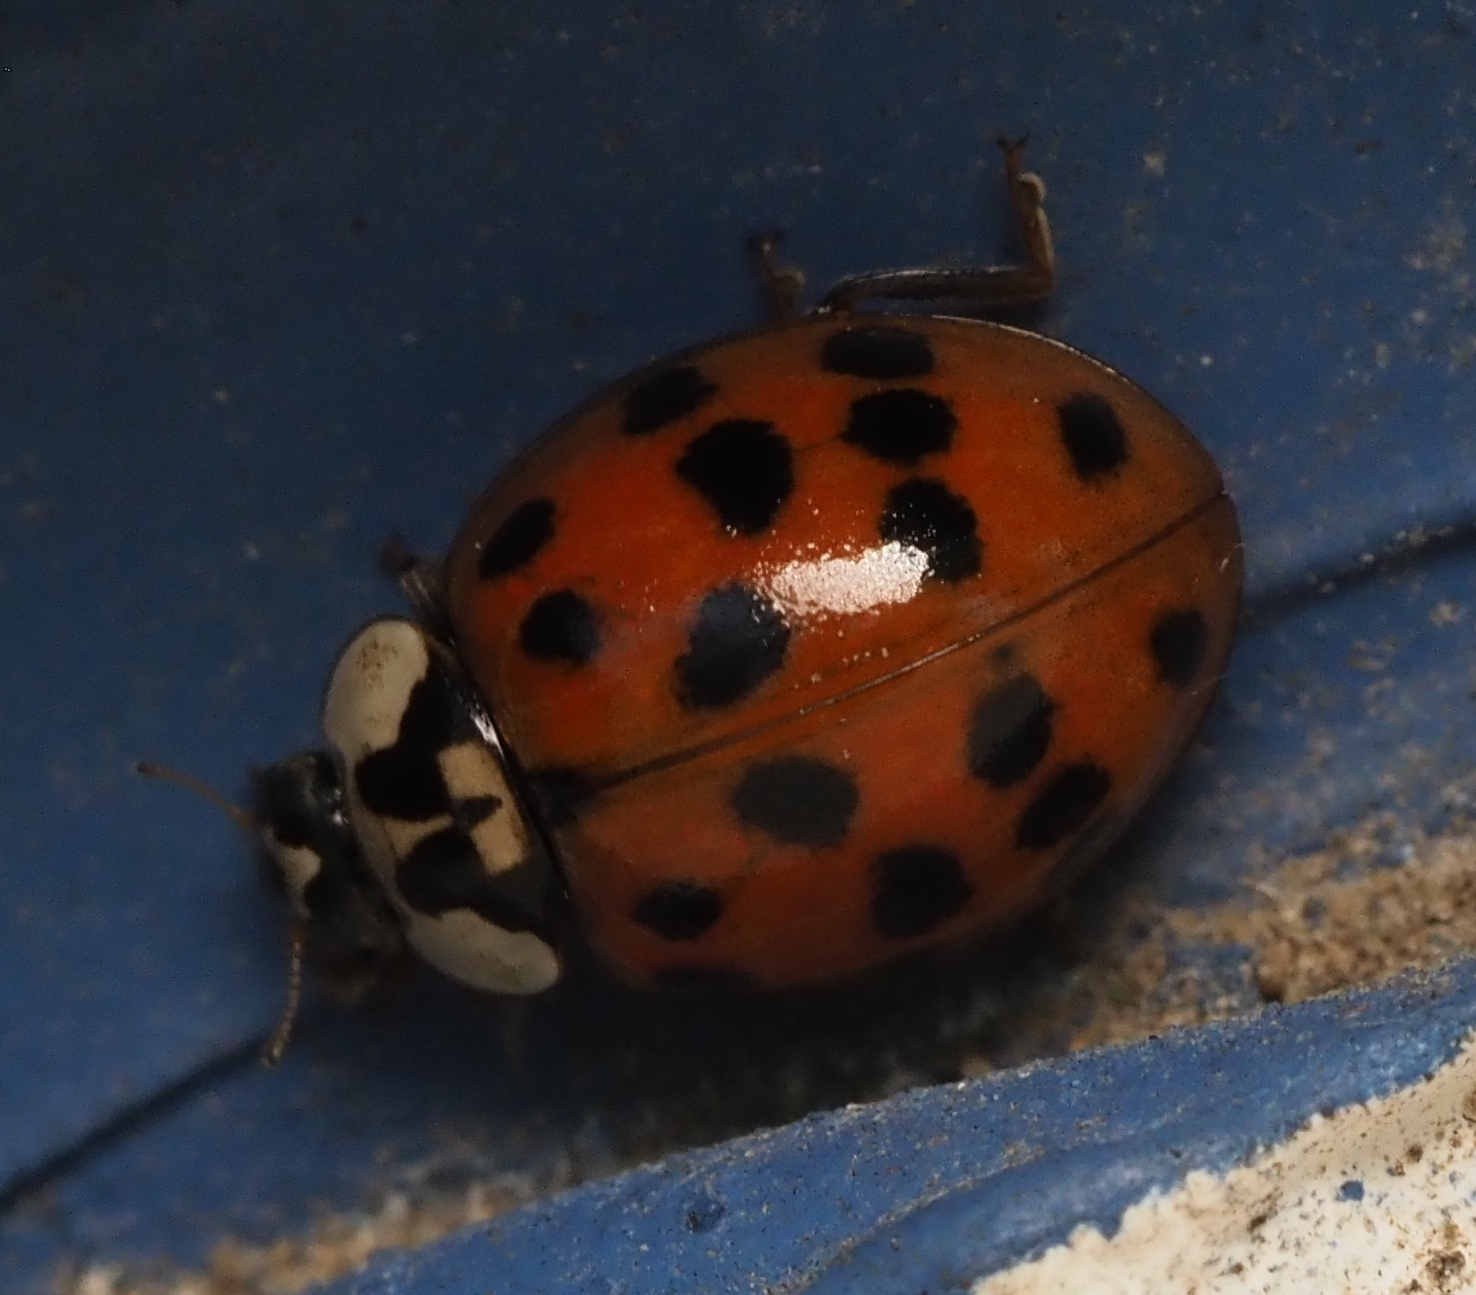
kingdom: Animalia
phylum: Arthropoda
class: Insecta
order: Coleoptera
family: Coccinellidae
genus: Harmonia
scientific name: Harmonia axyridis
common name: Harlequin ladybird
